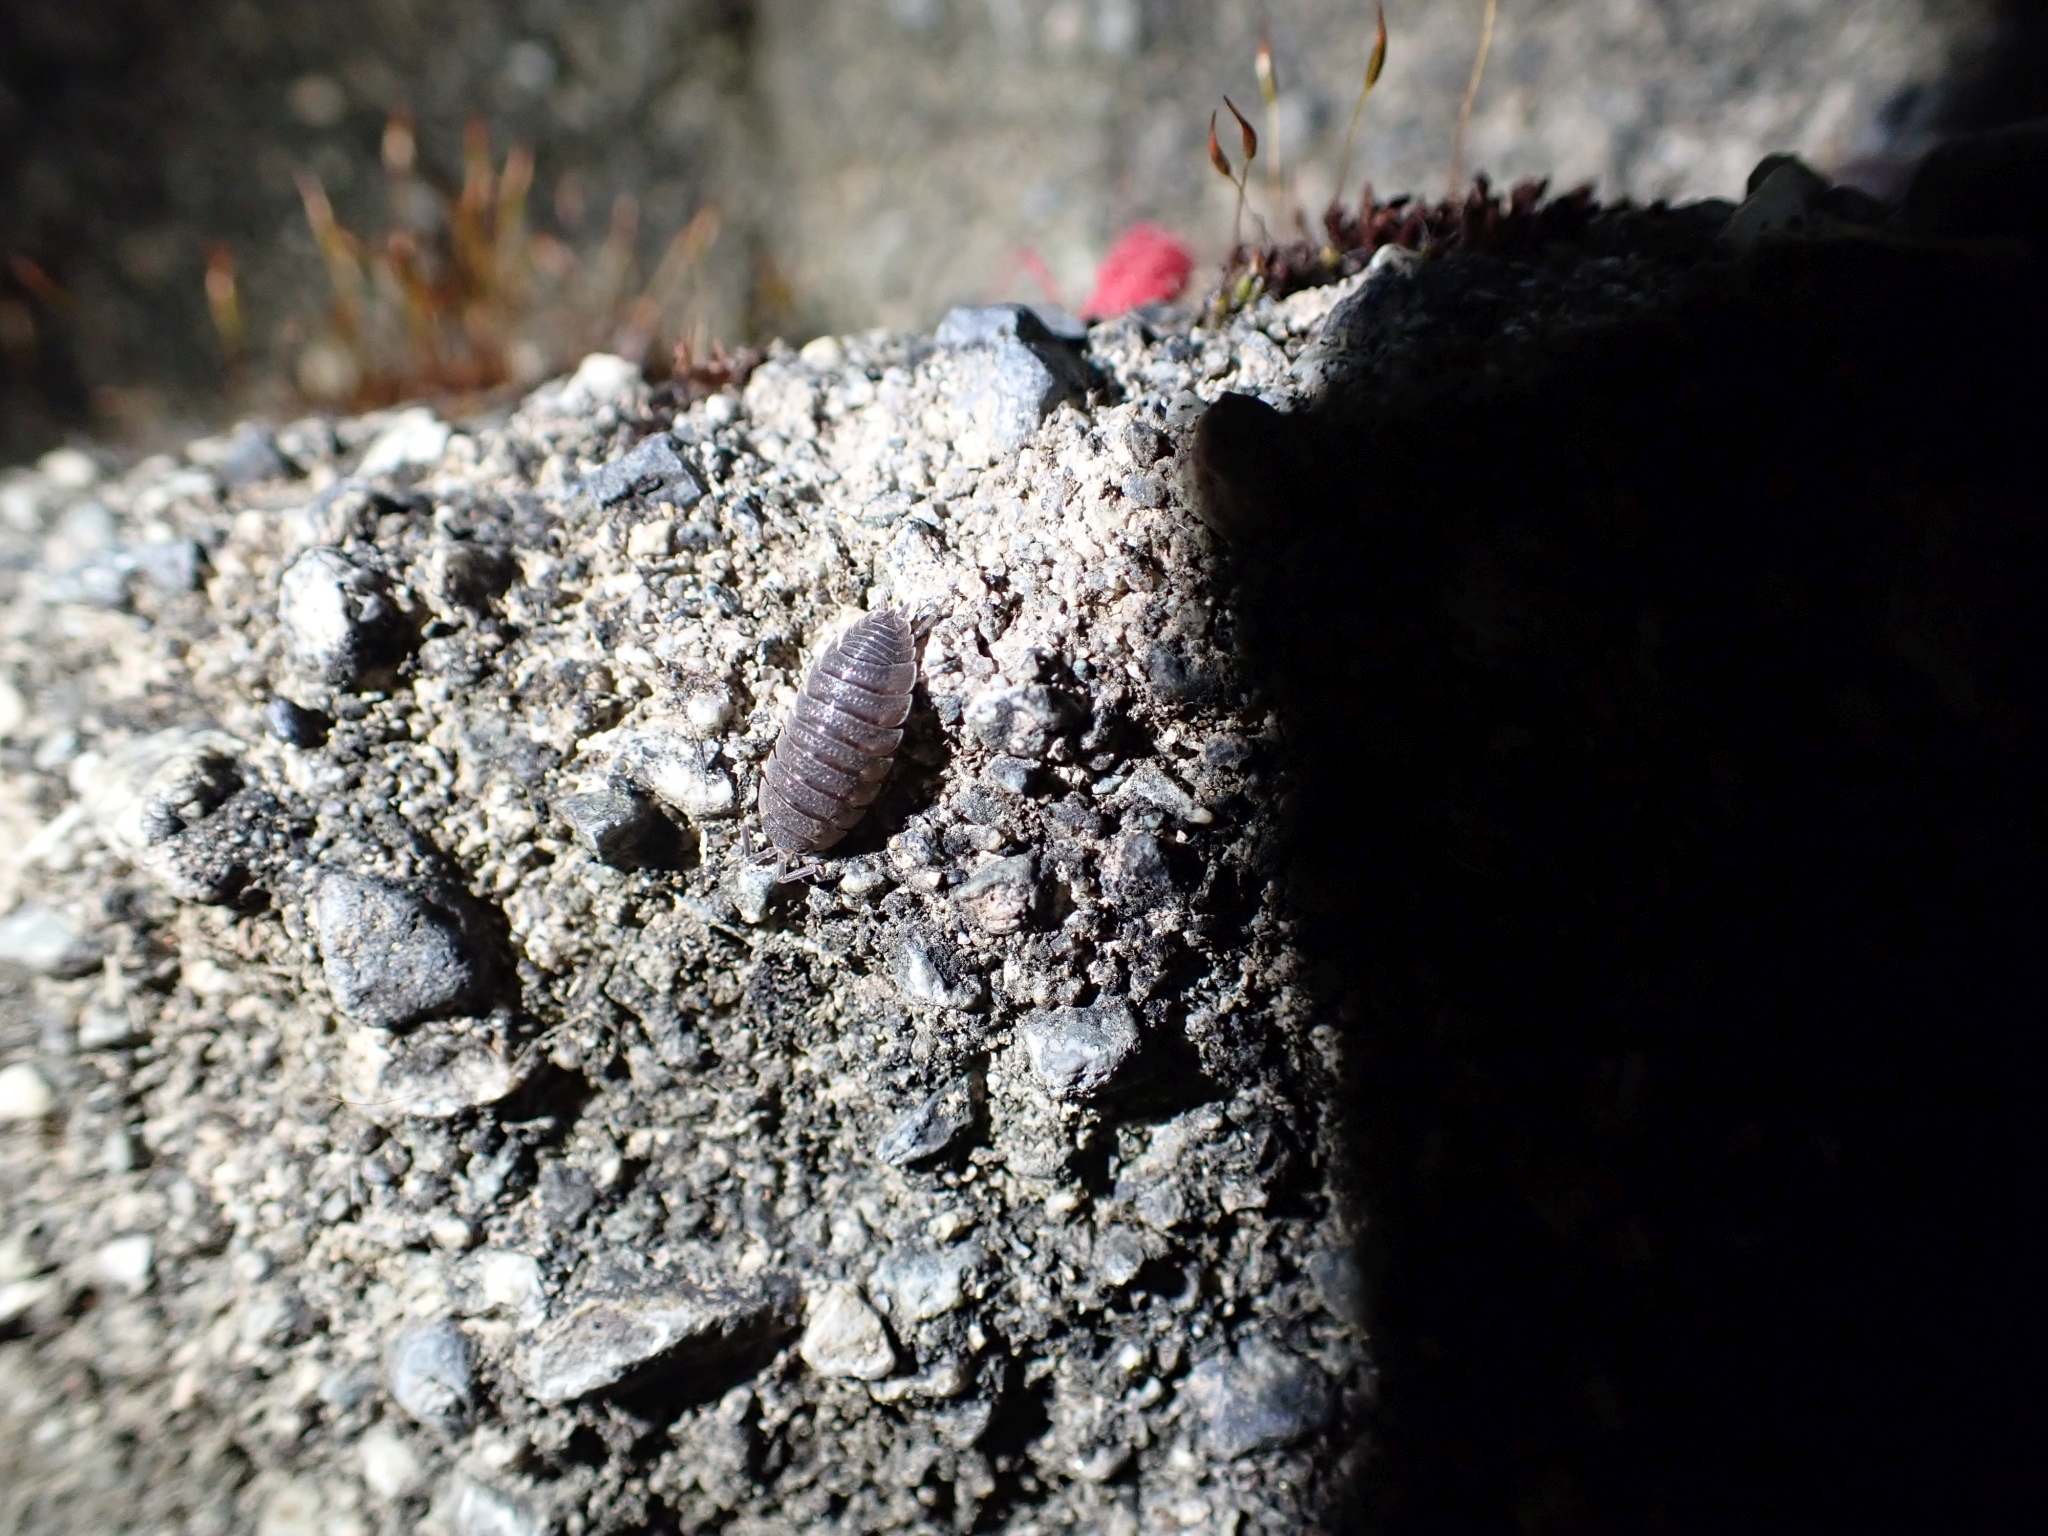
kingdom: Animalia
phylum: Arthropoda
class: Malacostraca
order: Isopoda
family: Porcellionidae
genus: Porcellio
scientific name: Porcellio scaber
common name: Common rough woodlouse
